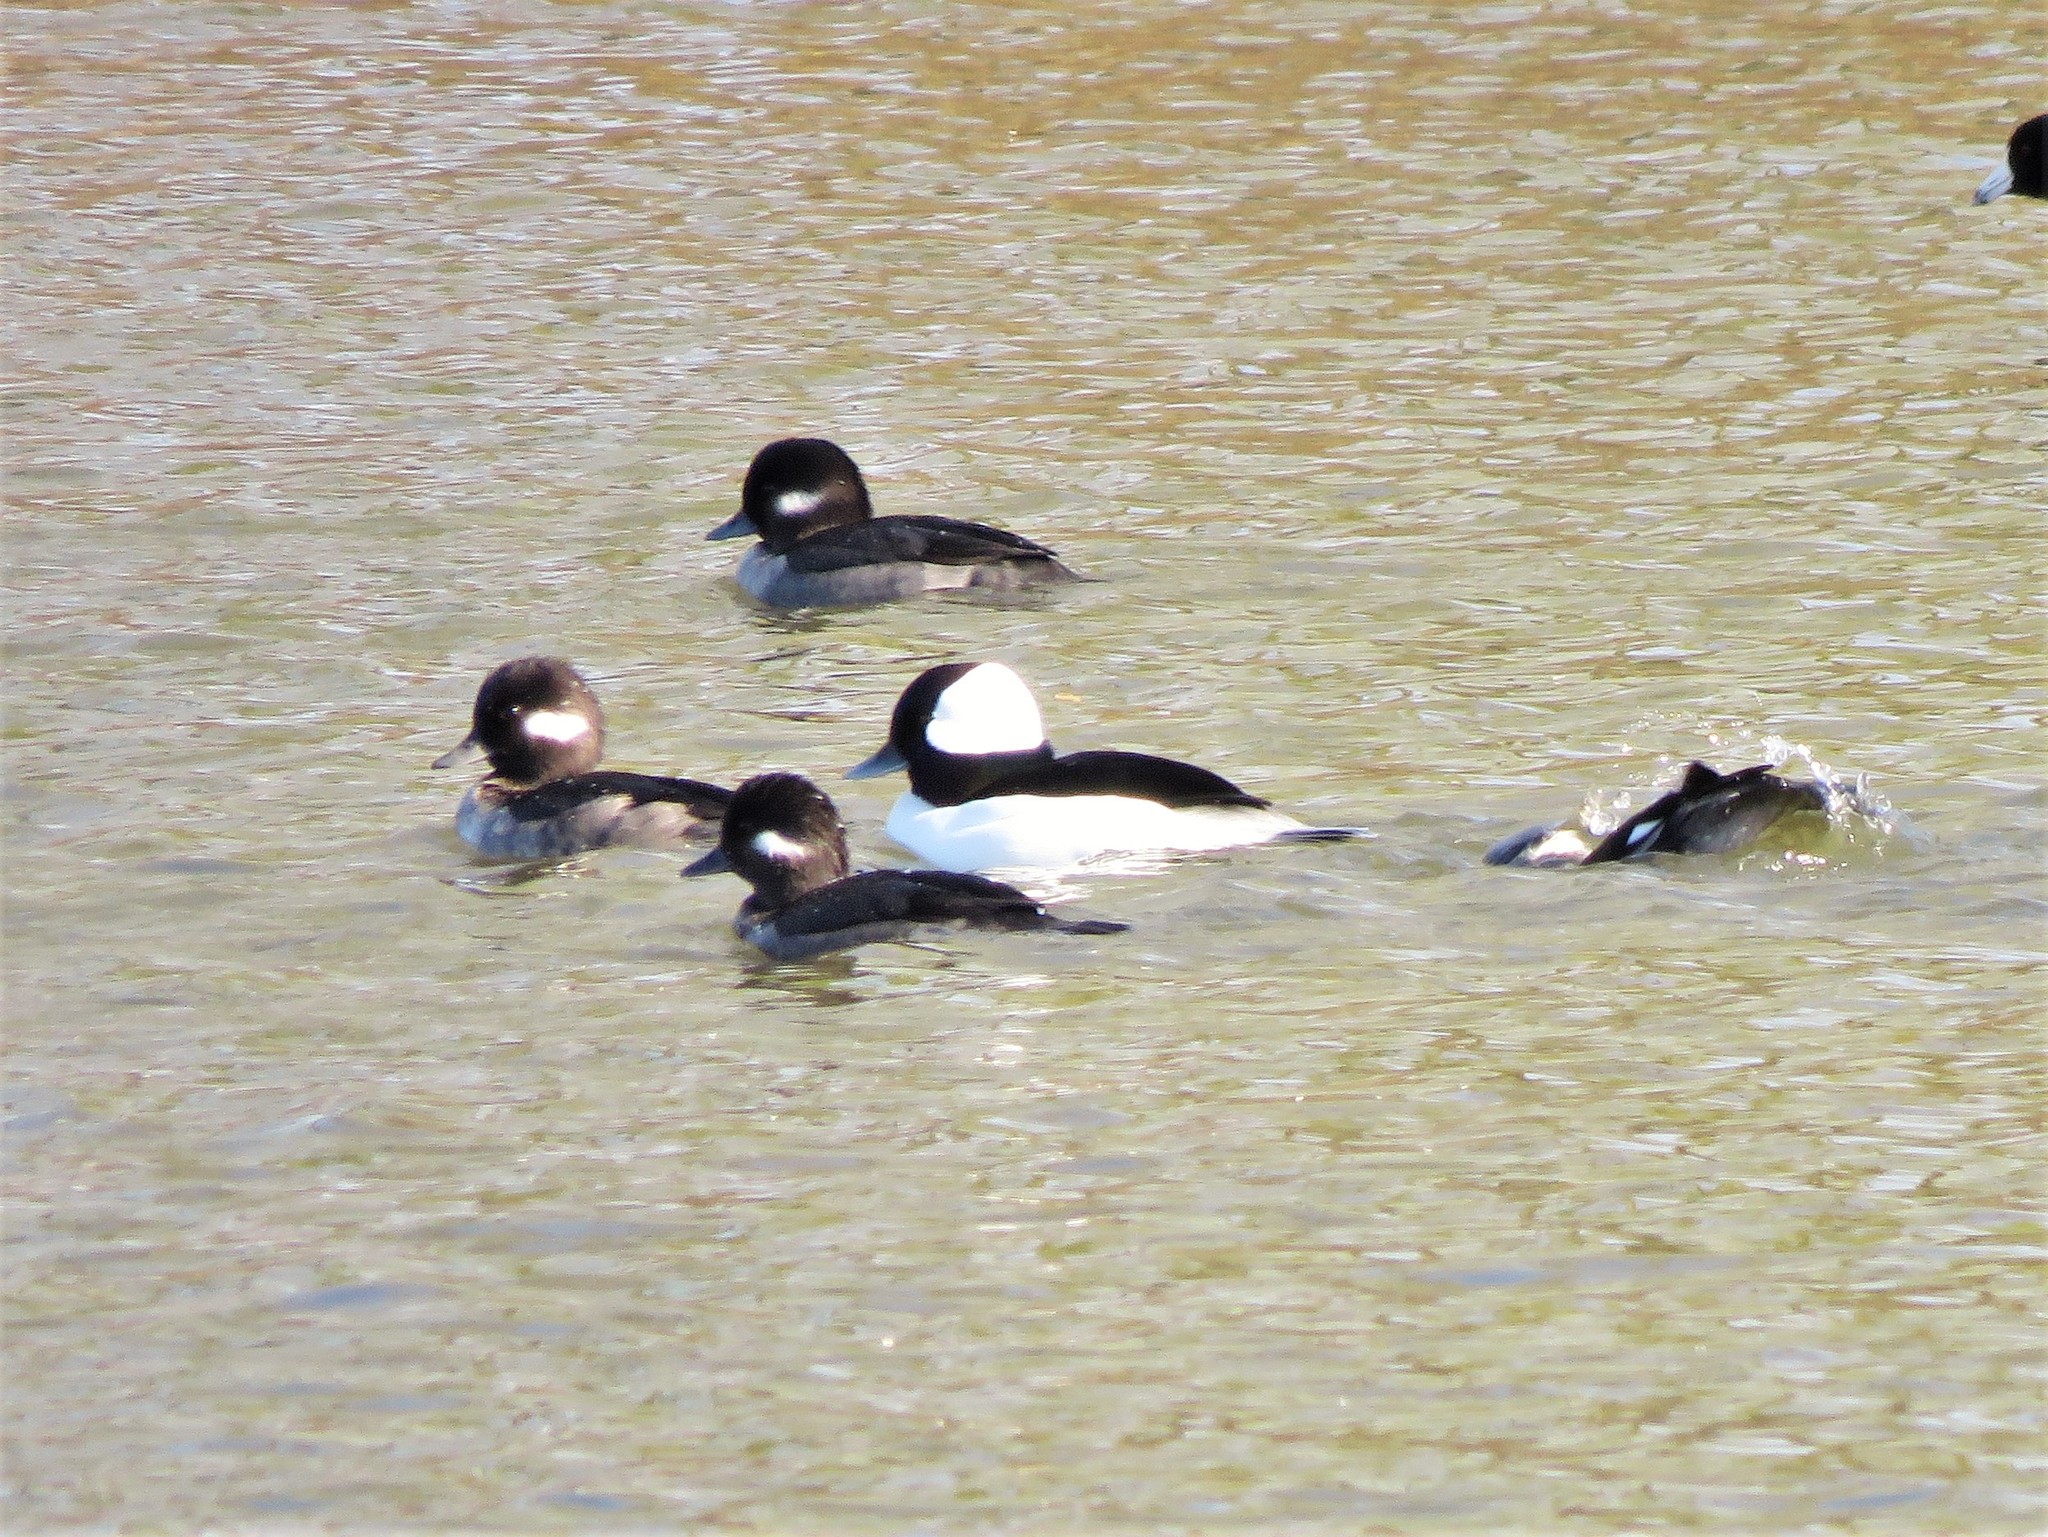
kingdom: Animalia
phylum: Chordata
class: Aves
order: Anseriformes
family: Anatidae
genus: Bucephala
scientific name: Bucephala albeola
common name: Bufflehead
